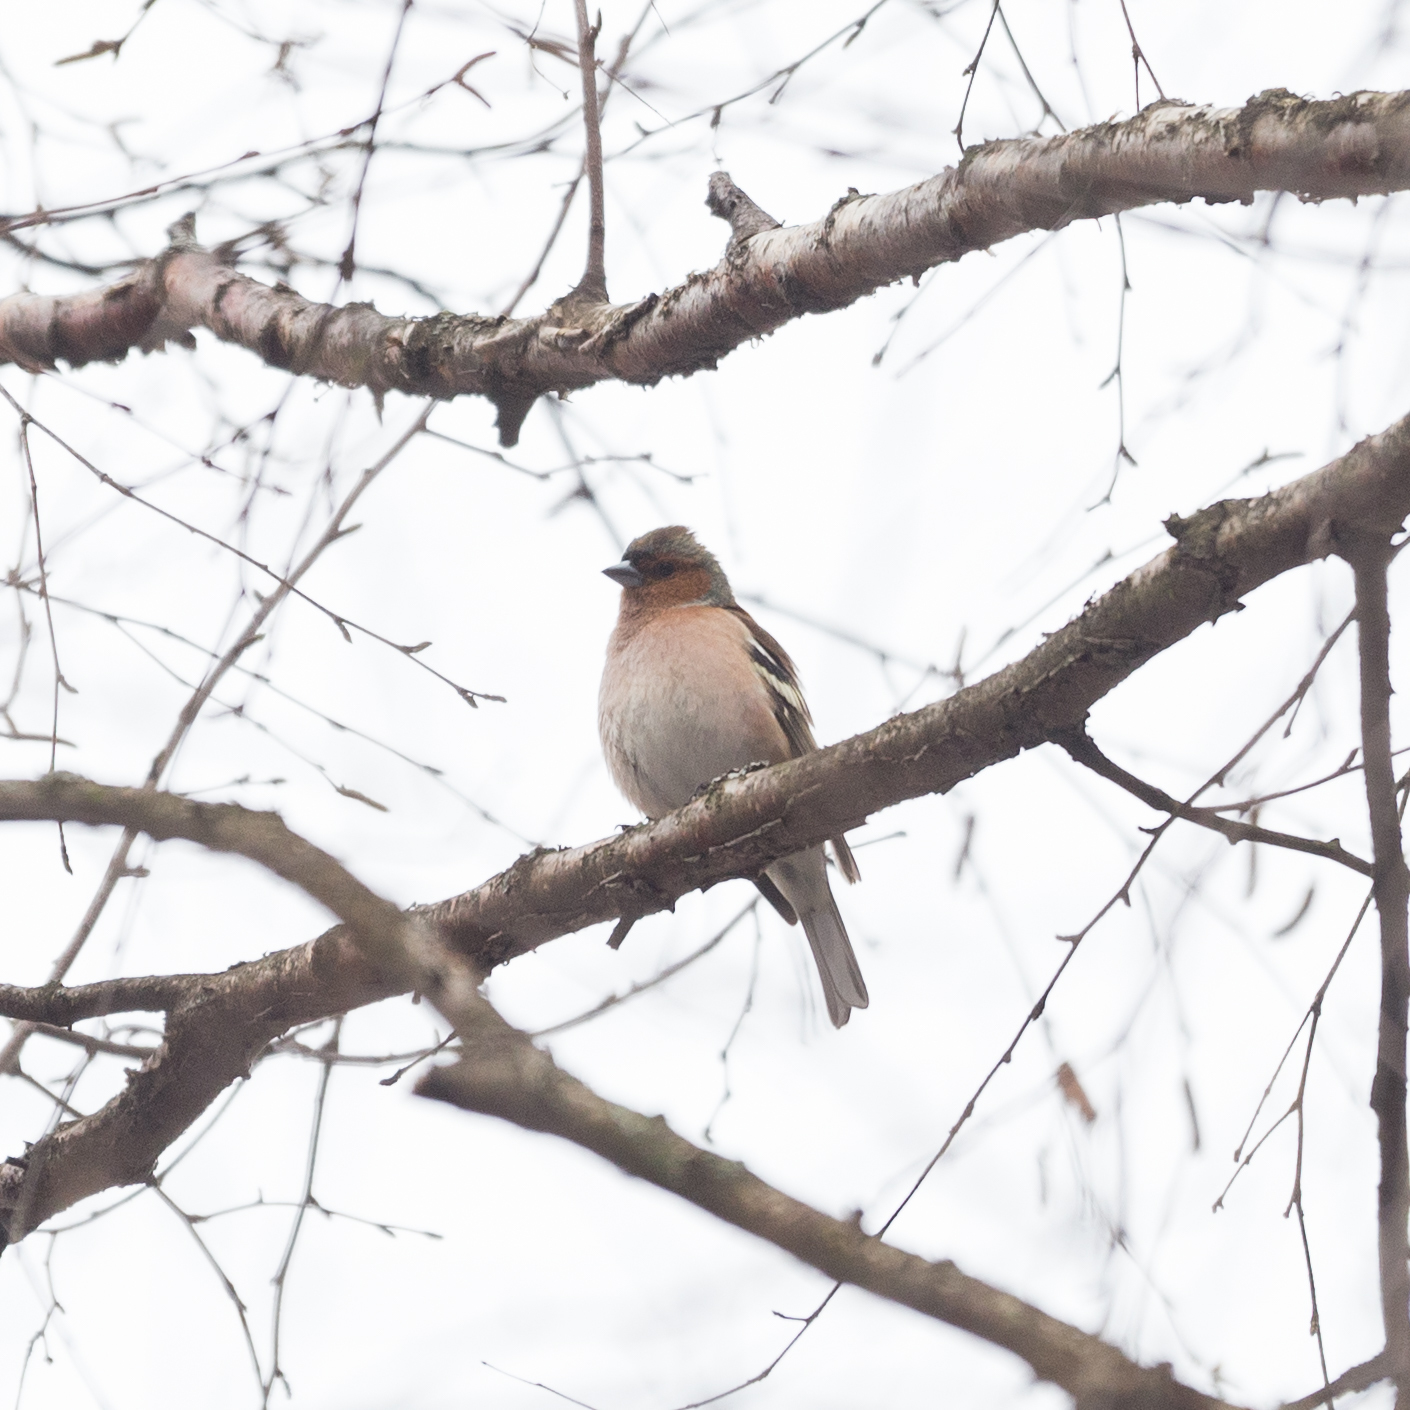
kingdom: Animalia
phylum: Chordata
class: Aves
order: Passeriformes
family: Fringillidae
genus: Fringilla
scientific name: Fringilla coelebs
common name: Common chaffinch
